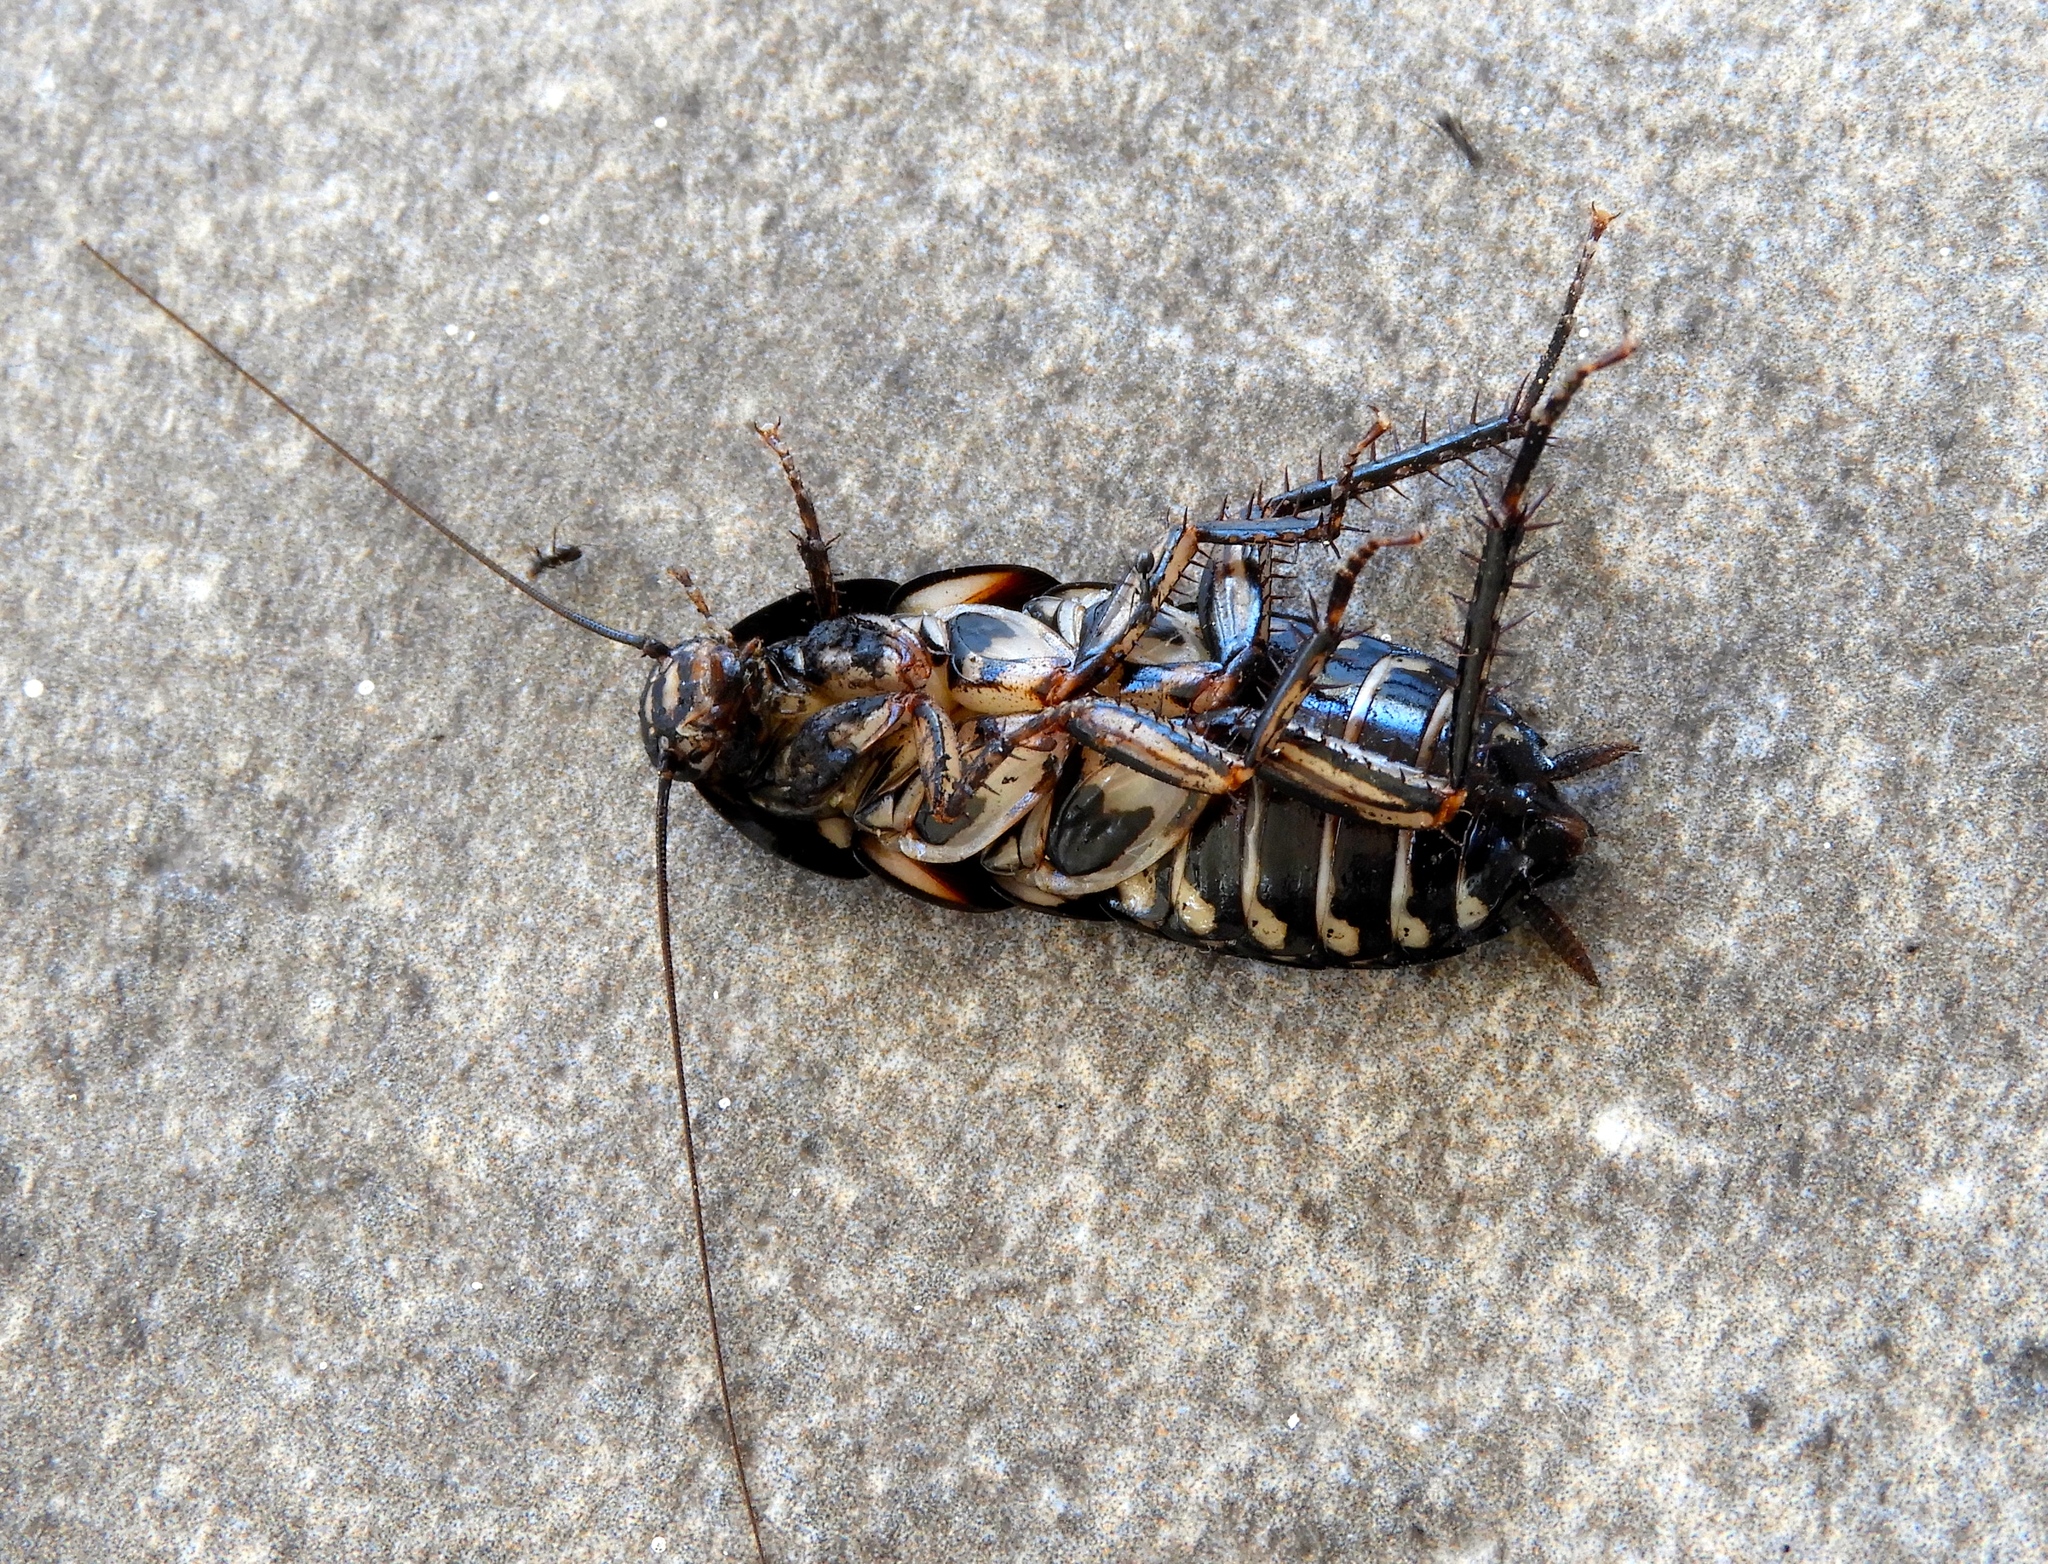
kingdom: Animalia
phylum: Arthropoda
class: Insecta
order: Blattodea
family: Blattidae
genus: Neostylopyga
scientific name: Neostylopyga rhombifolia
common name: Harlequin cockroach
